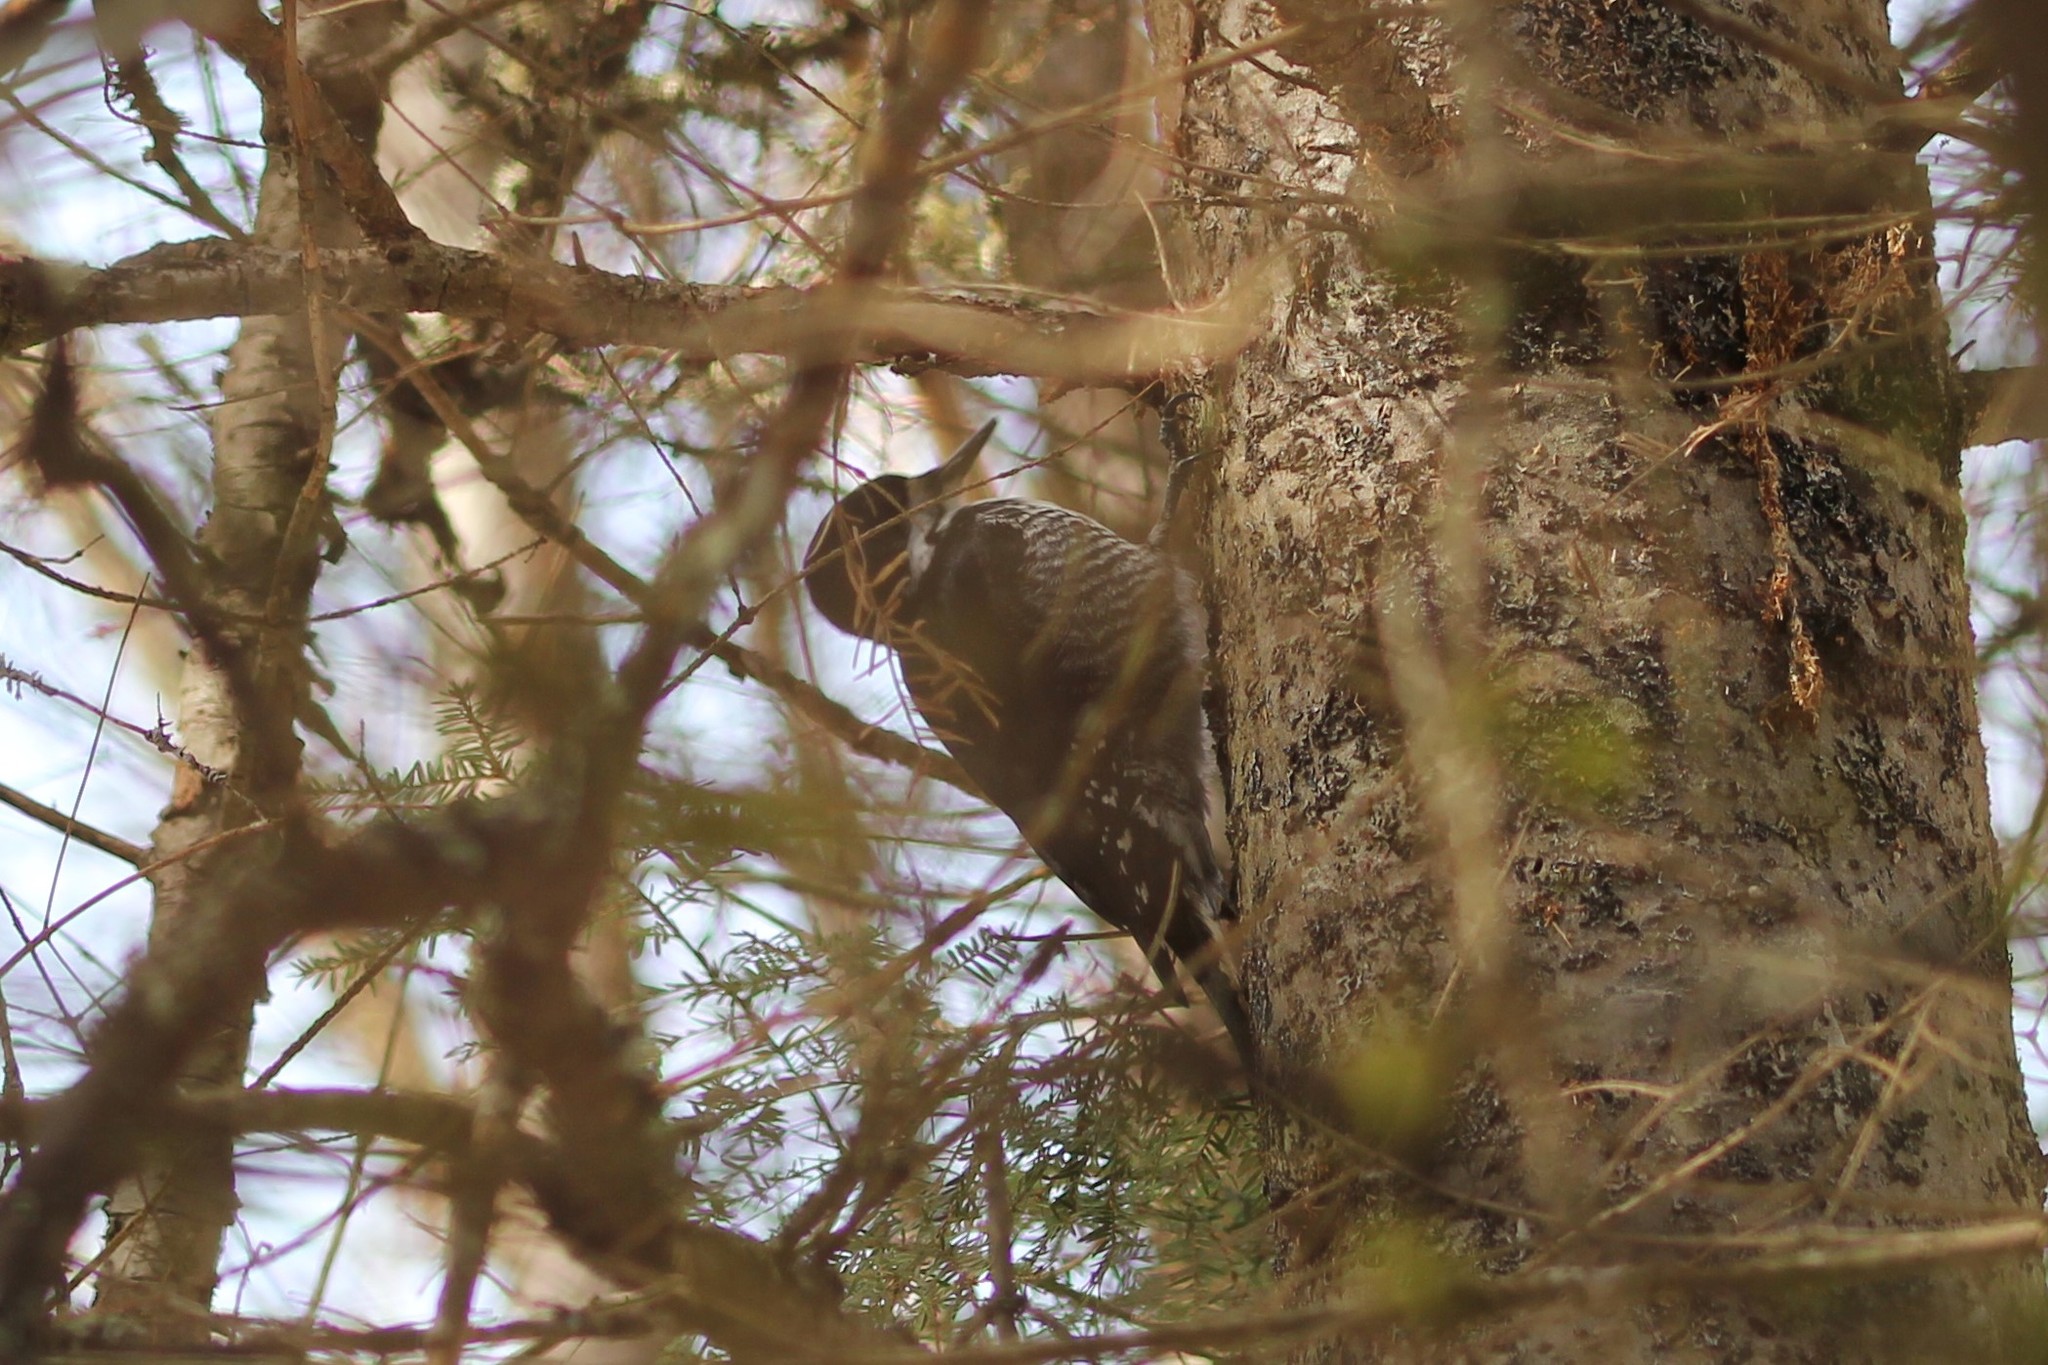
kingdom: Animalia
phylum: Chordata
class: Aves
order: Piciformes
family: Picidae
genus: Picoides
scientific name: Picoides arcticus
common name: Black-backed woodpecker
